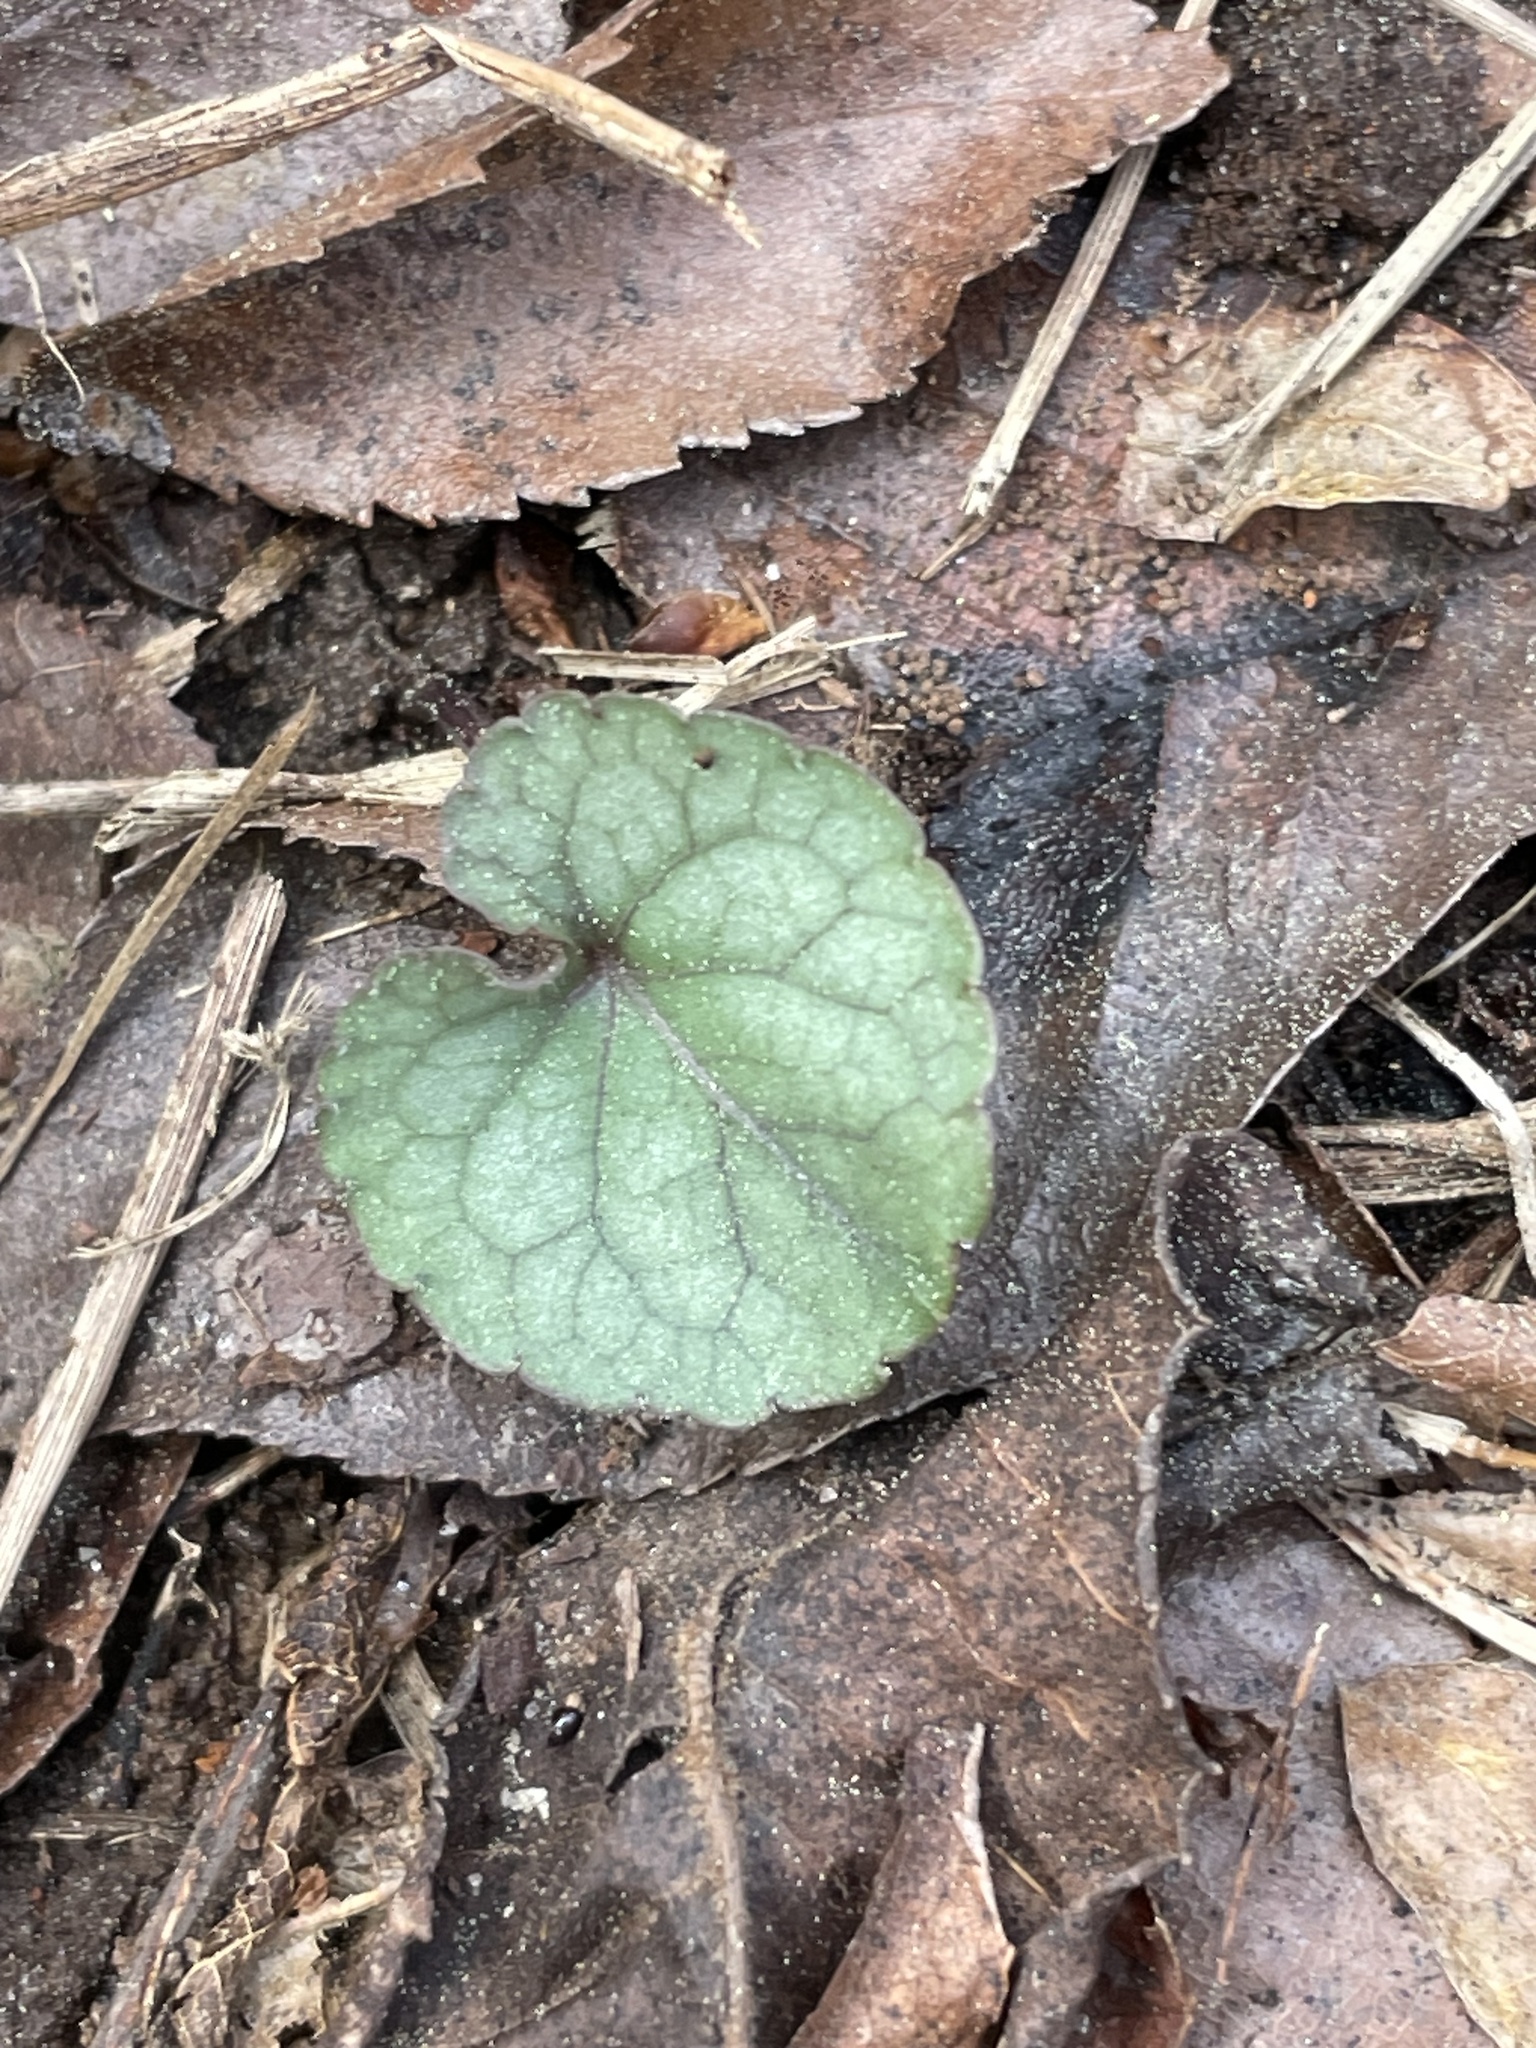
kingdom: Plantae
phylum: Tracheophyta
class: Magnoliopsida
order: Malpighiales
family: Violaceae
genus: Viola
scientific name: Viola hirsutula
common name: Southern wood violet
